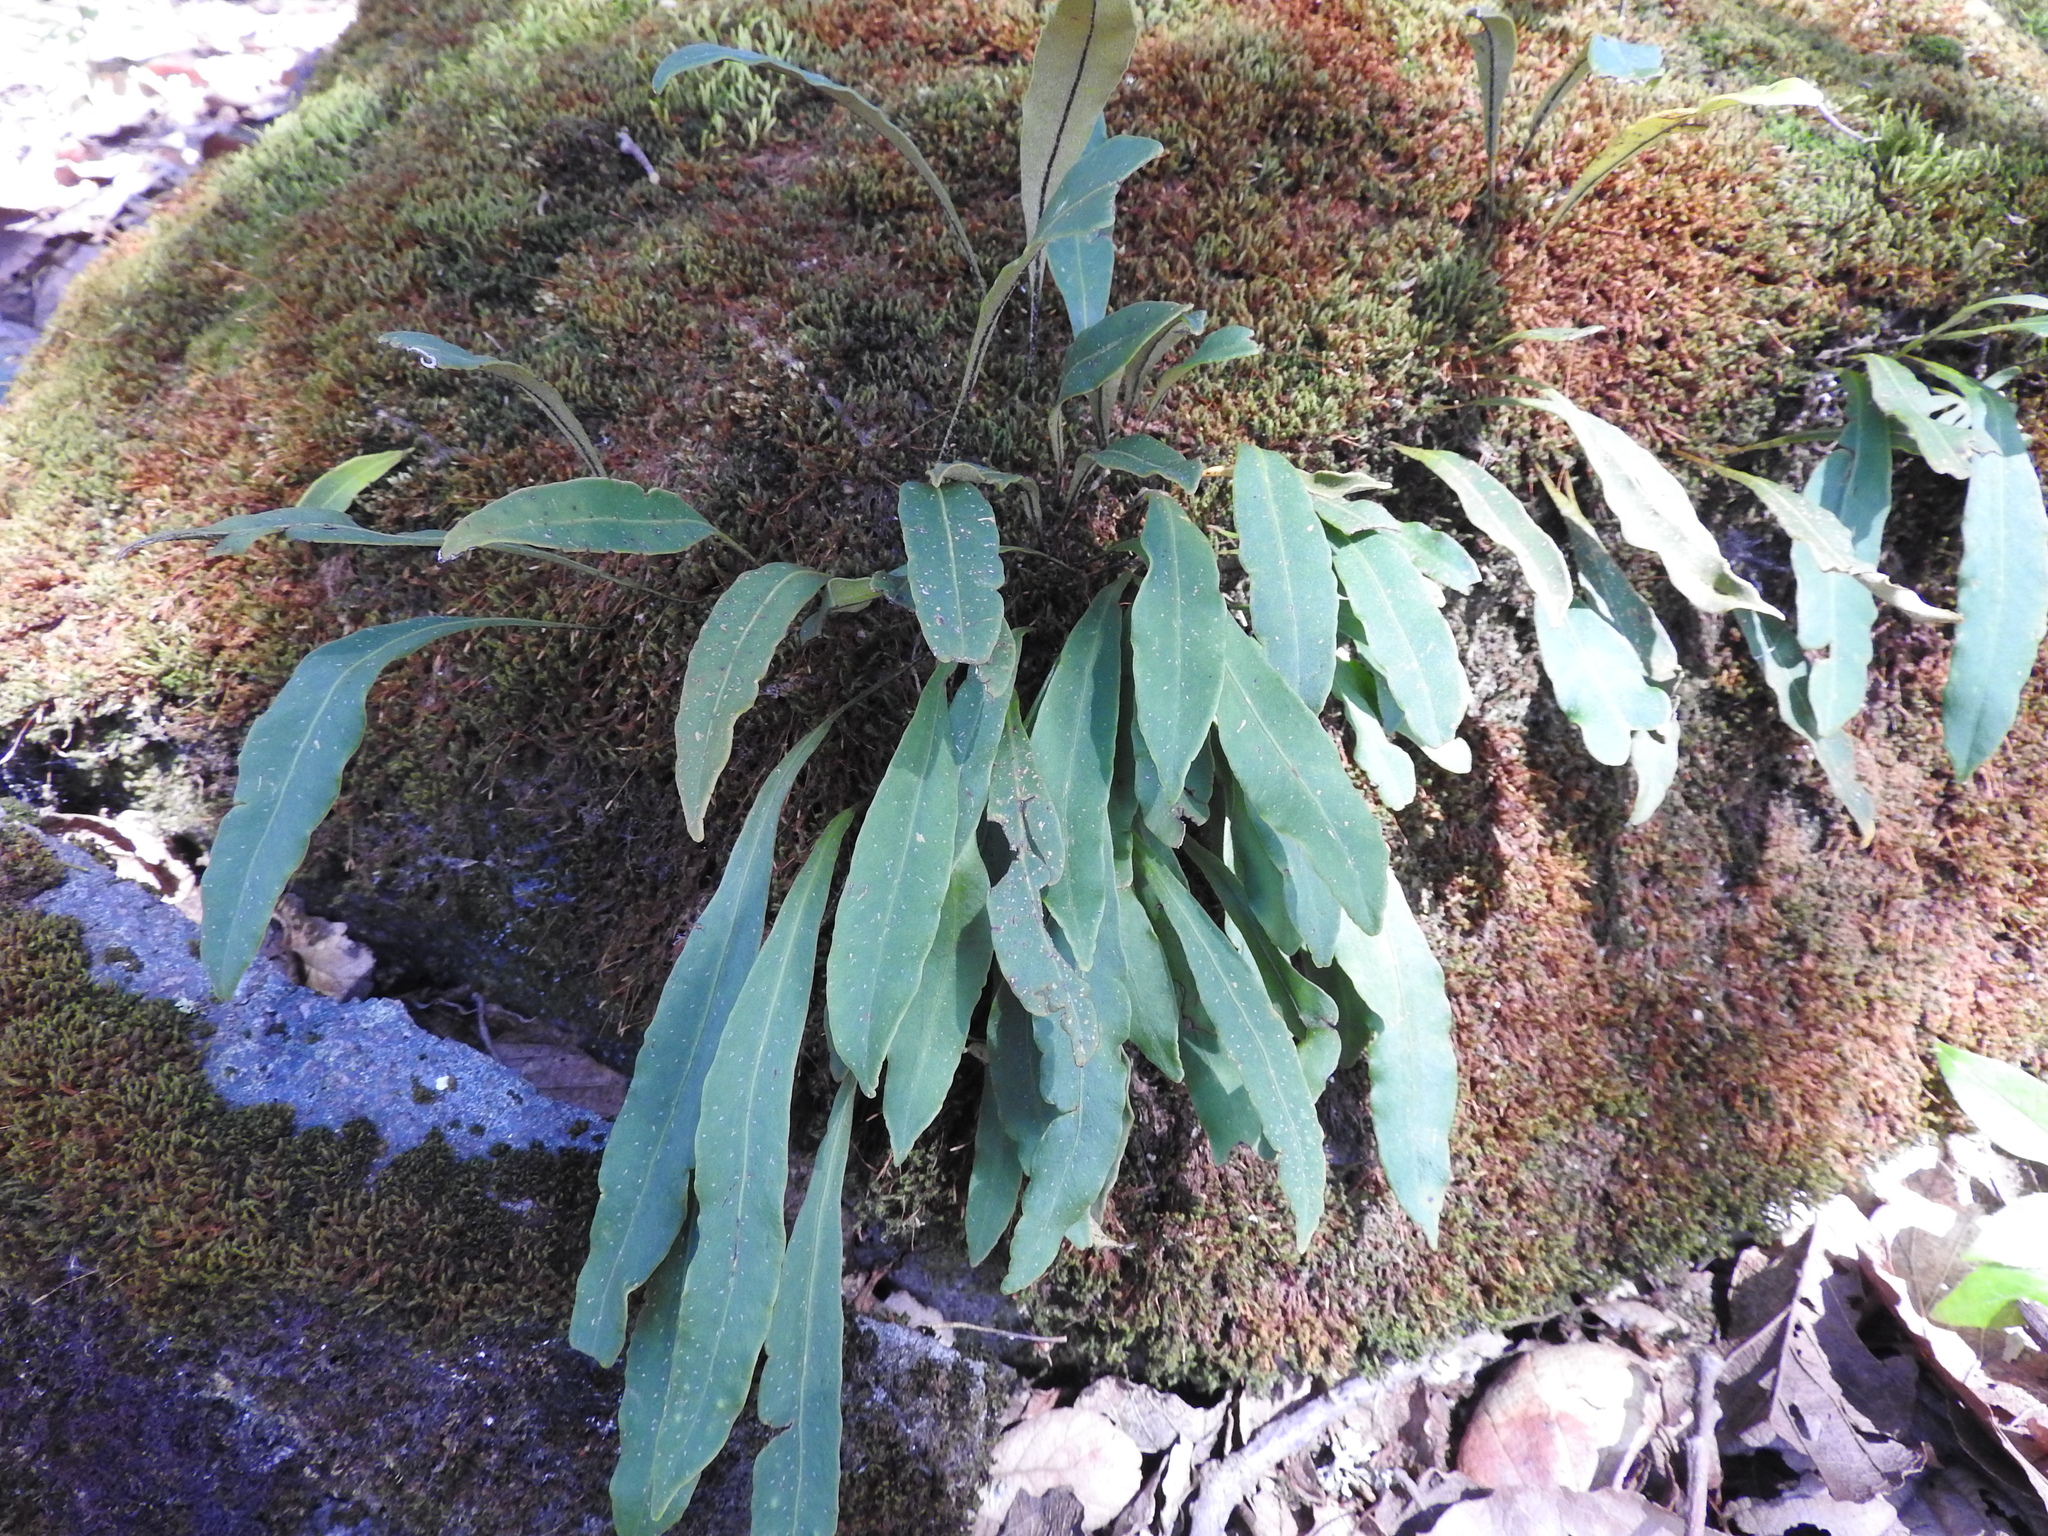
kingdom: Plantae
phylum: Tracheophyta
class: Polypodiopsida
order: Polypodiales
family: Polypodiaceae
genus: Pleopeltis
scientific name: Pleopeltis polylepis
